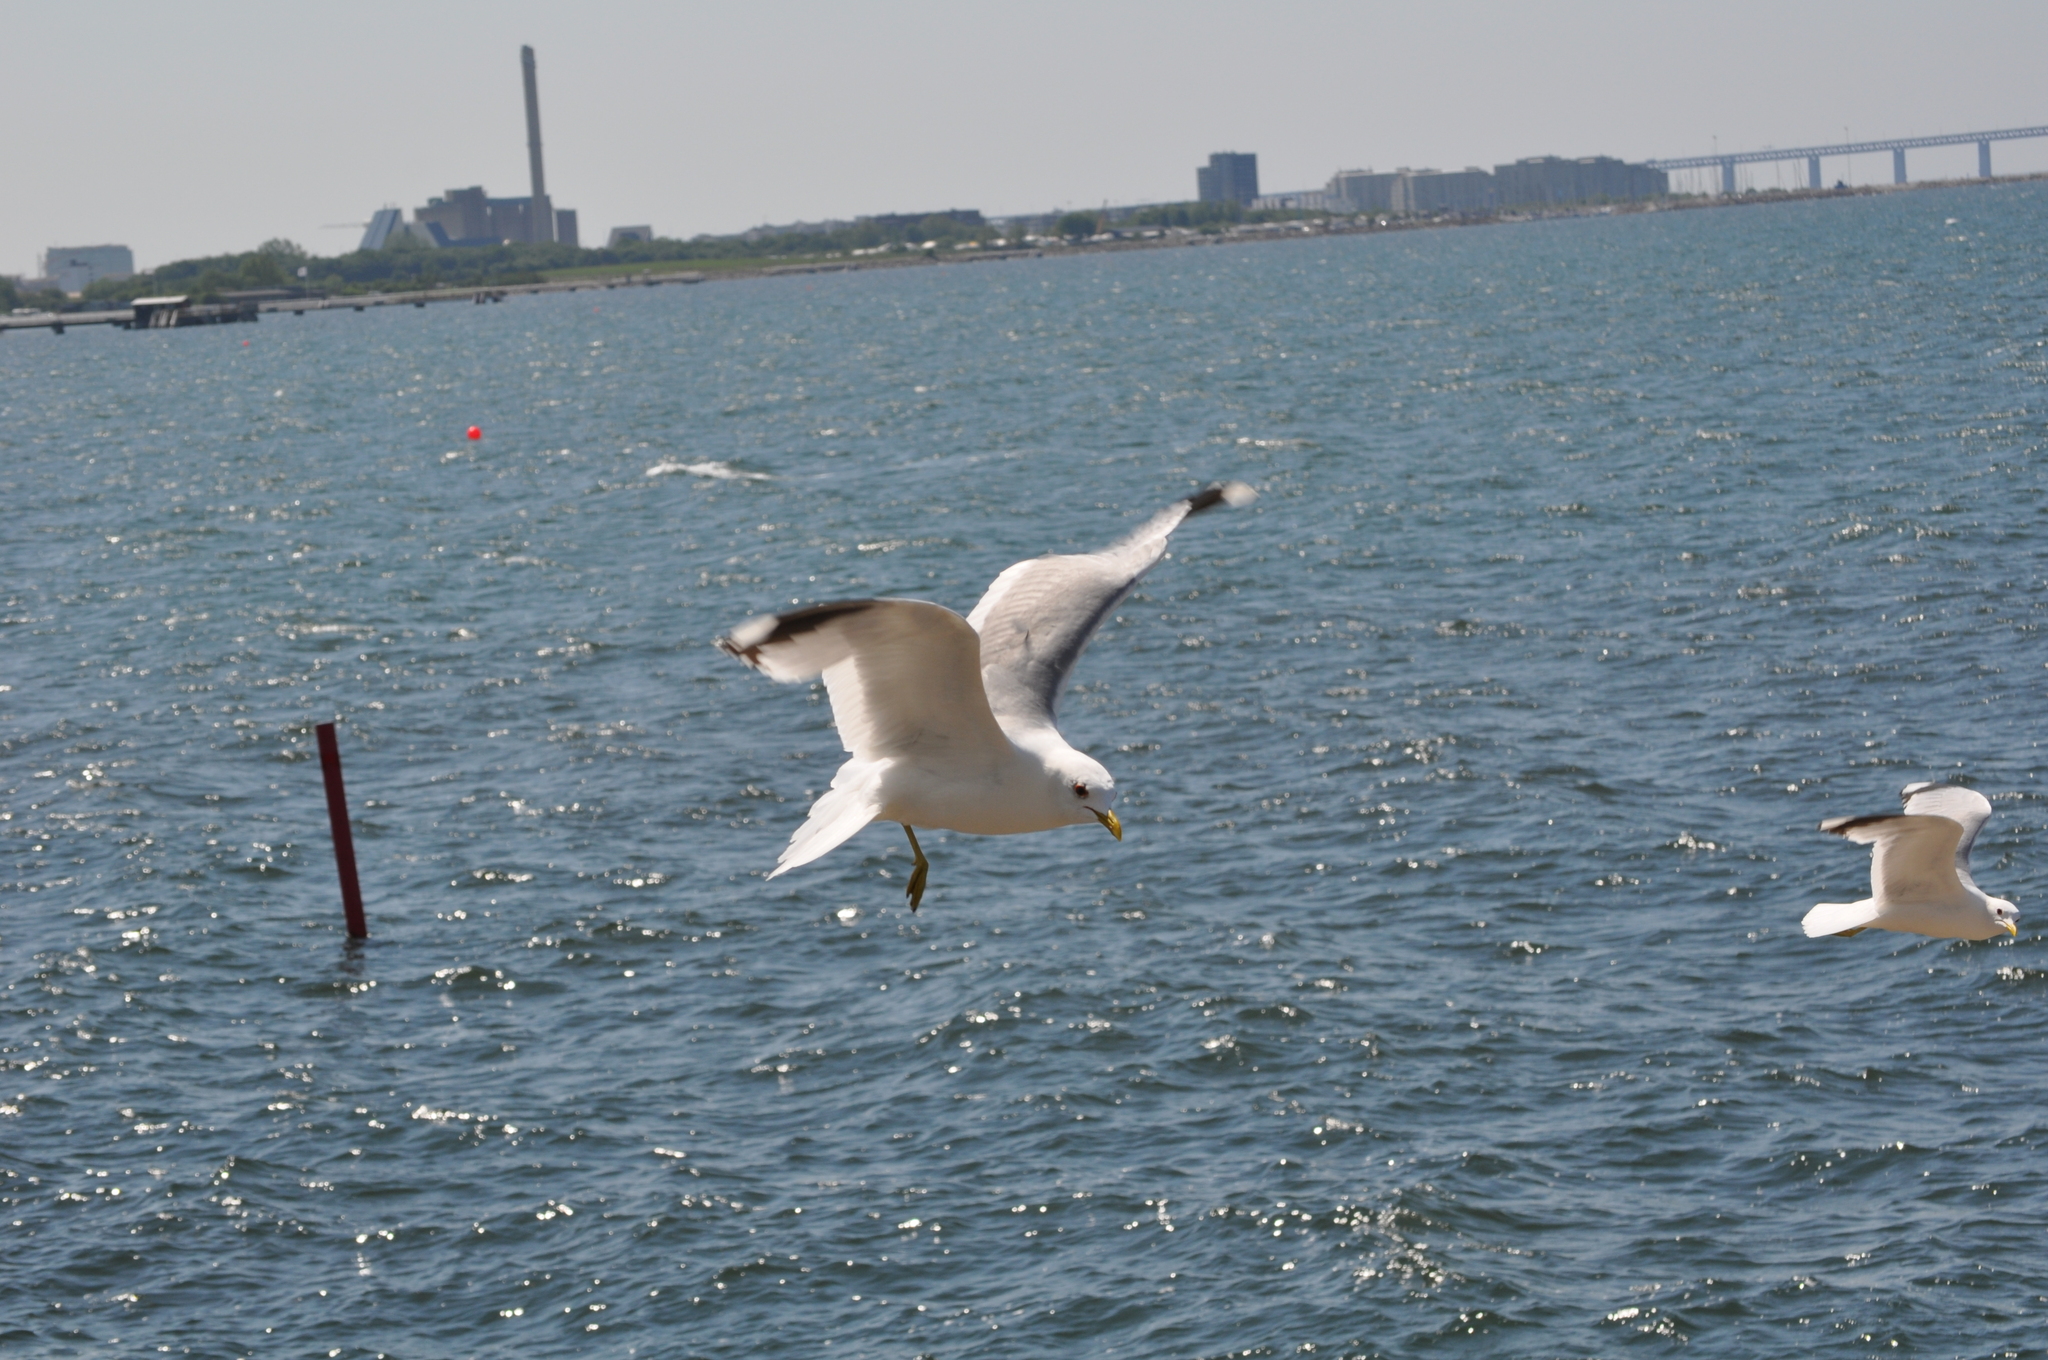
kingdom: Animalia
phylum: Chordata
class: Aves
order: Charadriiformes
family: Laridae
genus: Larus
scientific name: Larus canus
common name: Mew gull
